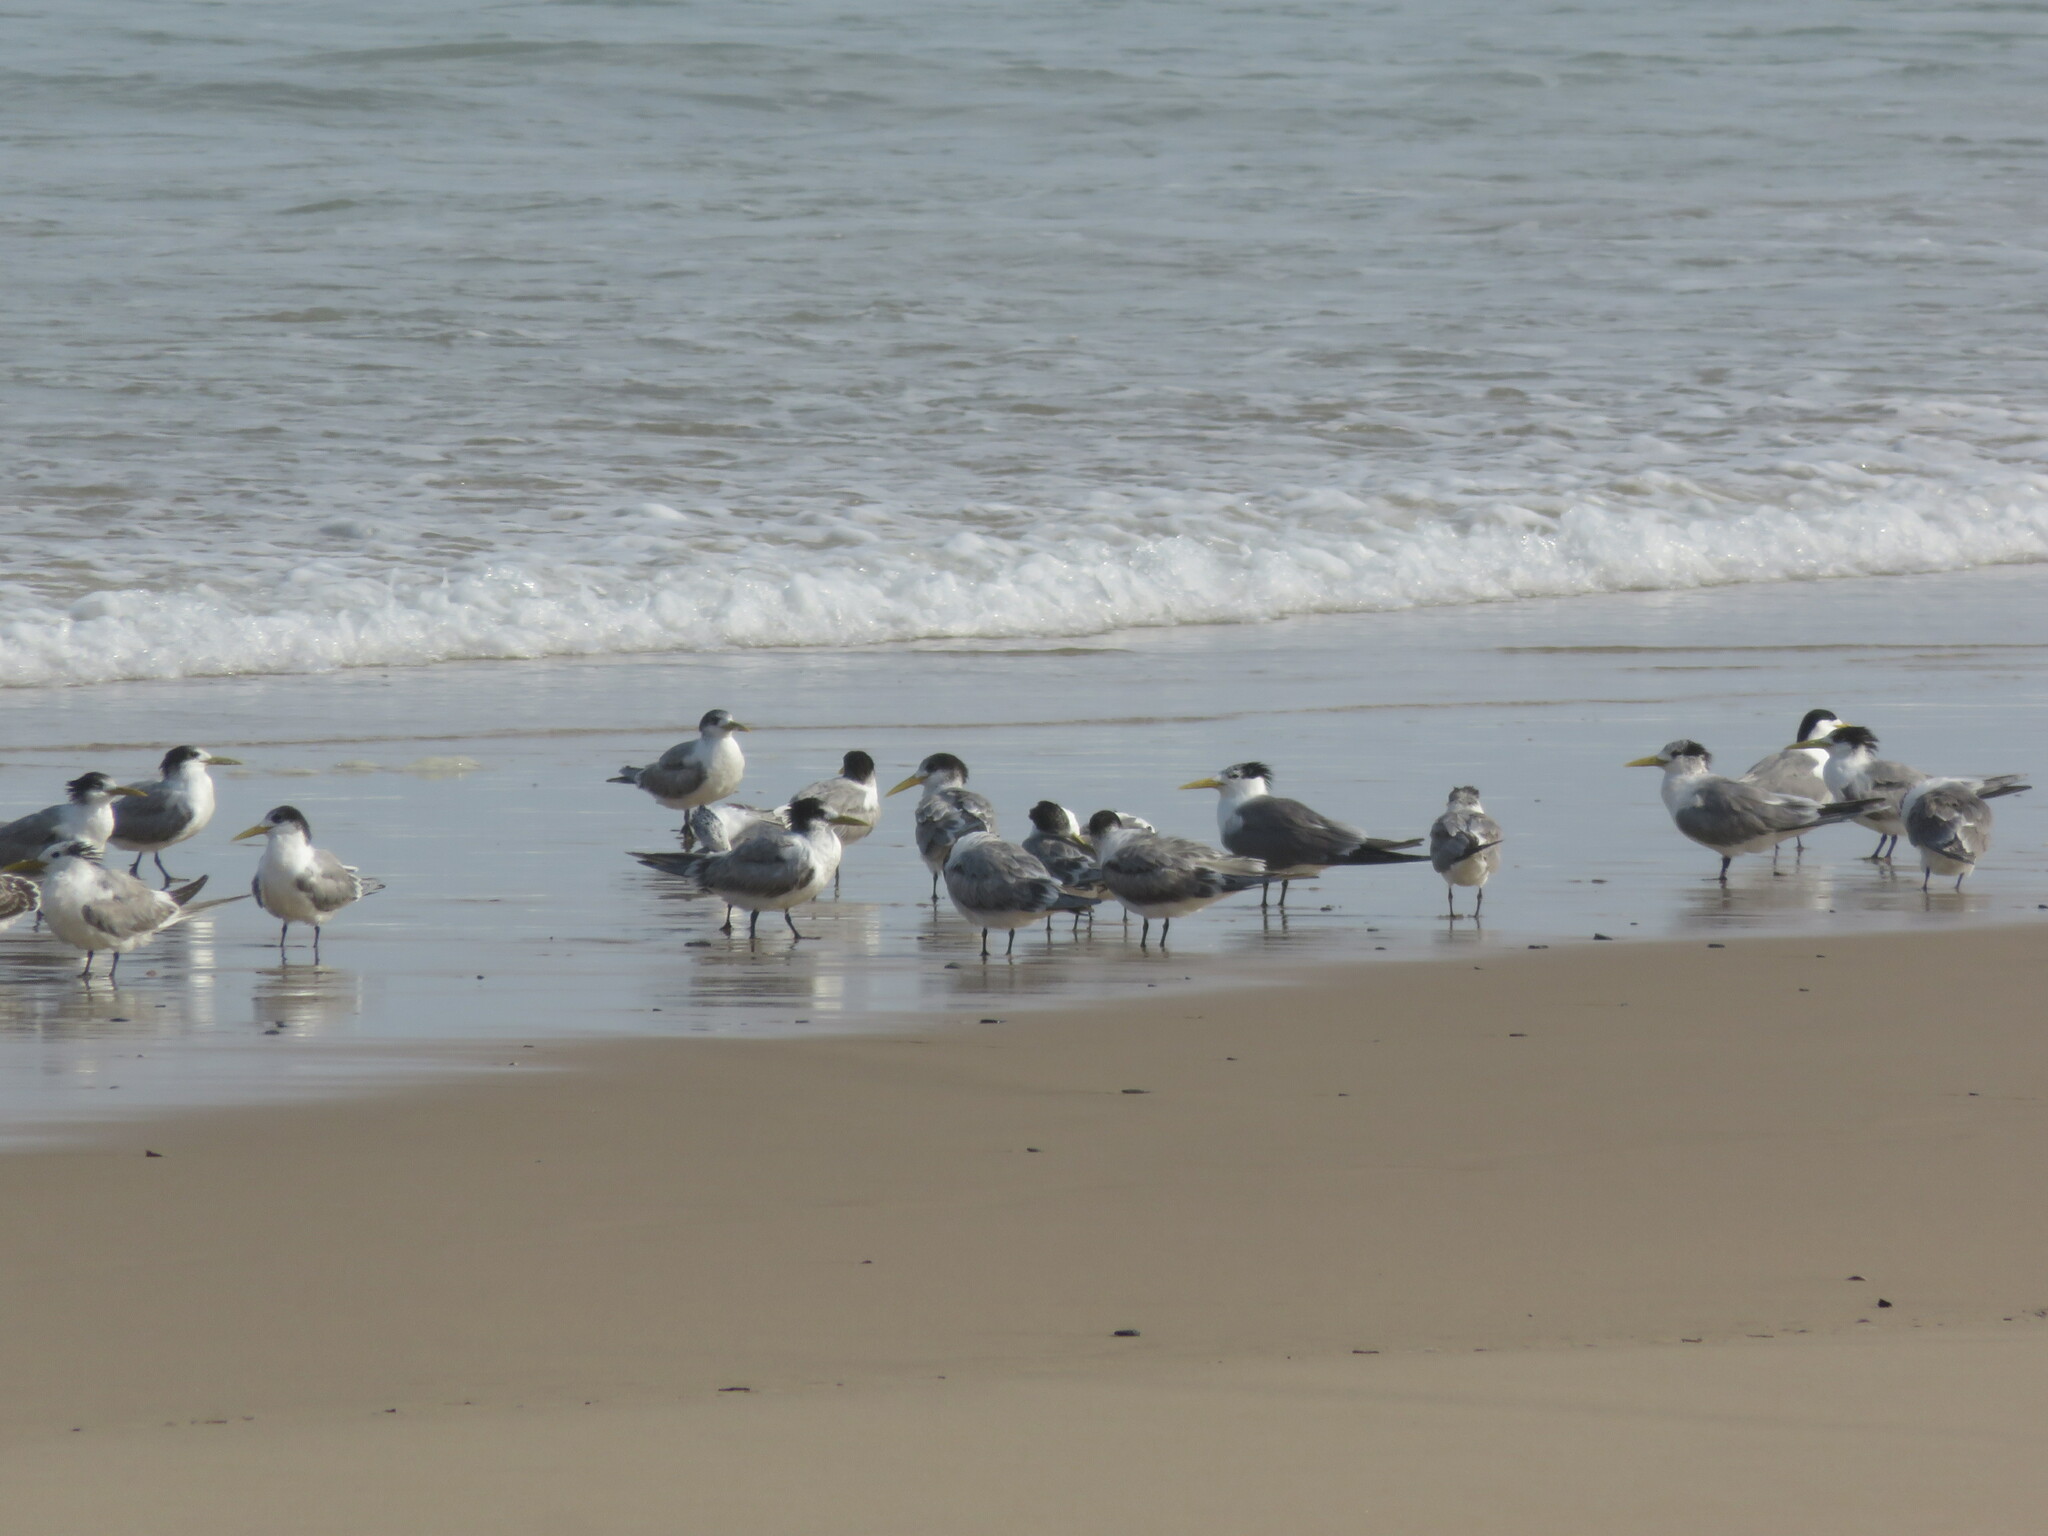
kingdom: Animalia
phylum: Chordata
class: Aves
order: Charadriiformes
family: Laridae
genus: Thalasseus
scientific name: Thalasseus bergii
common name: Greater crested tern
